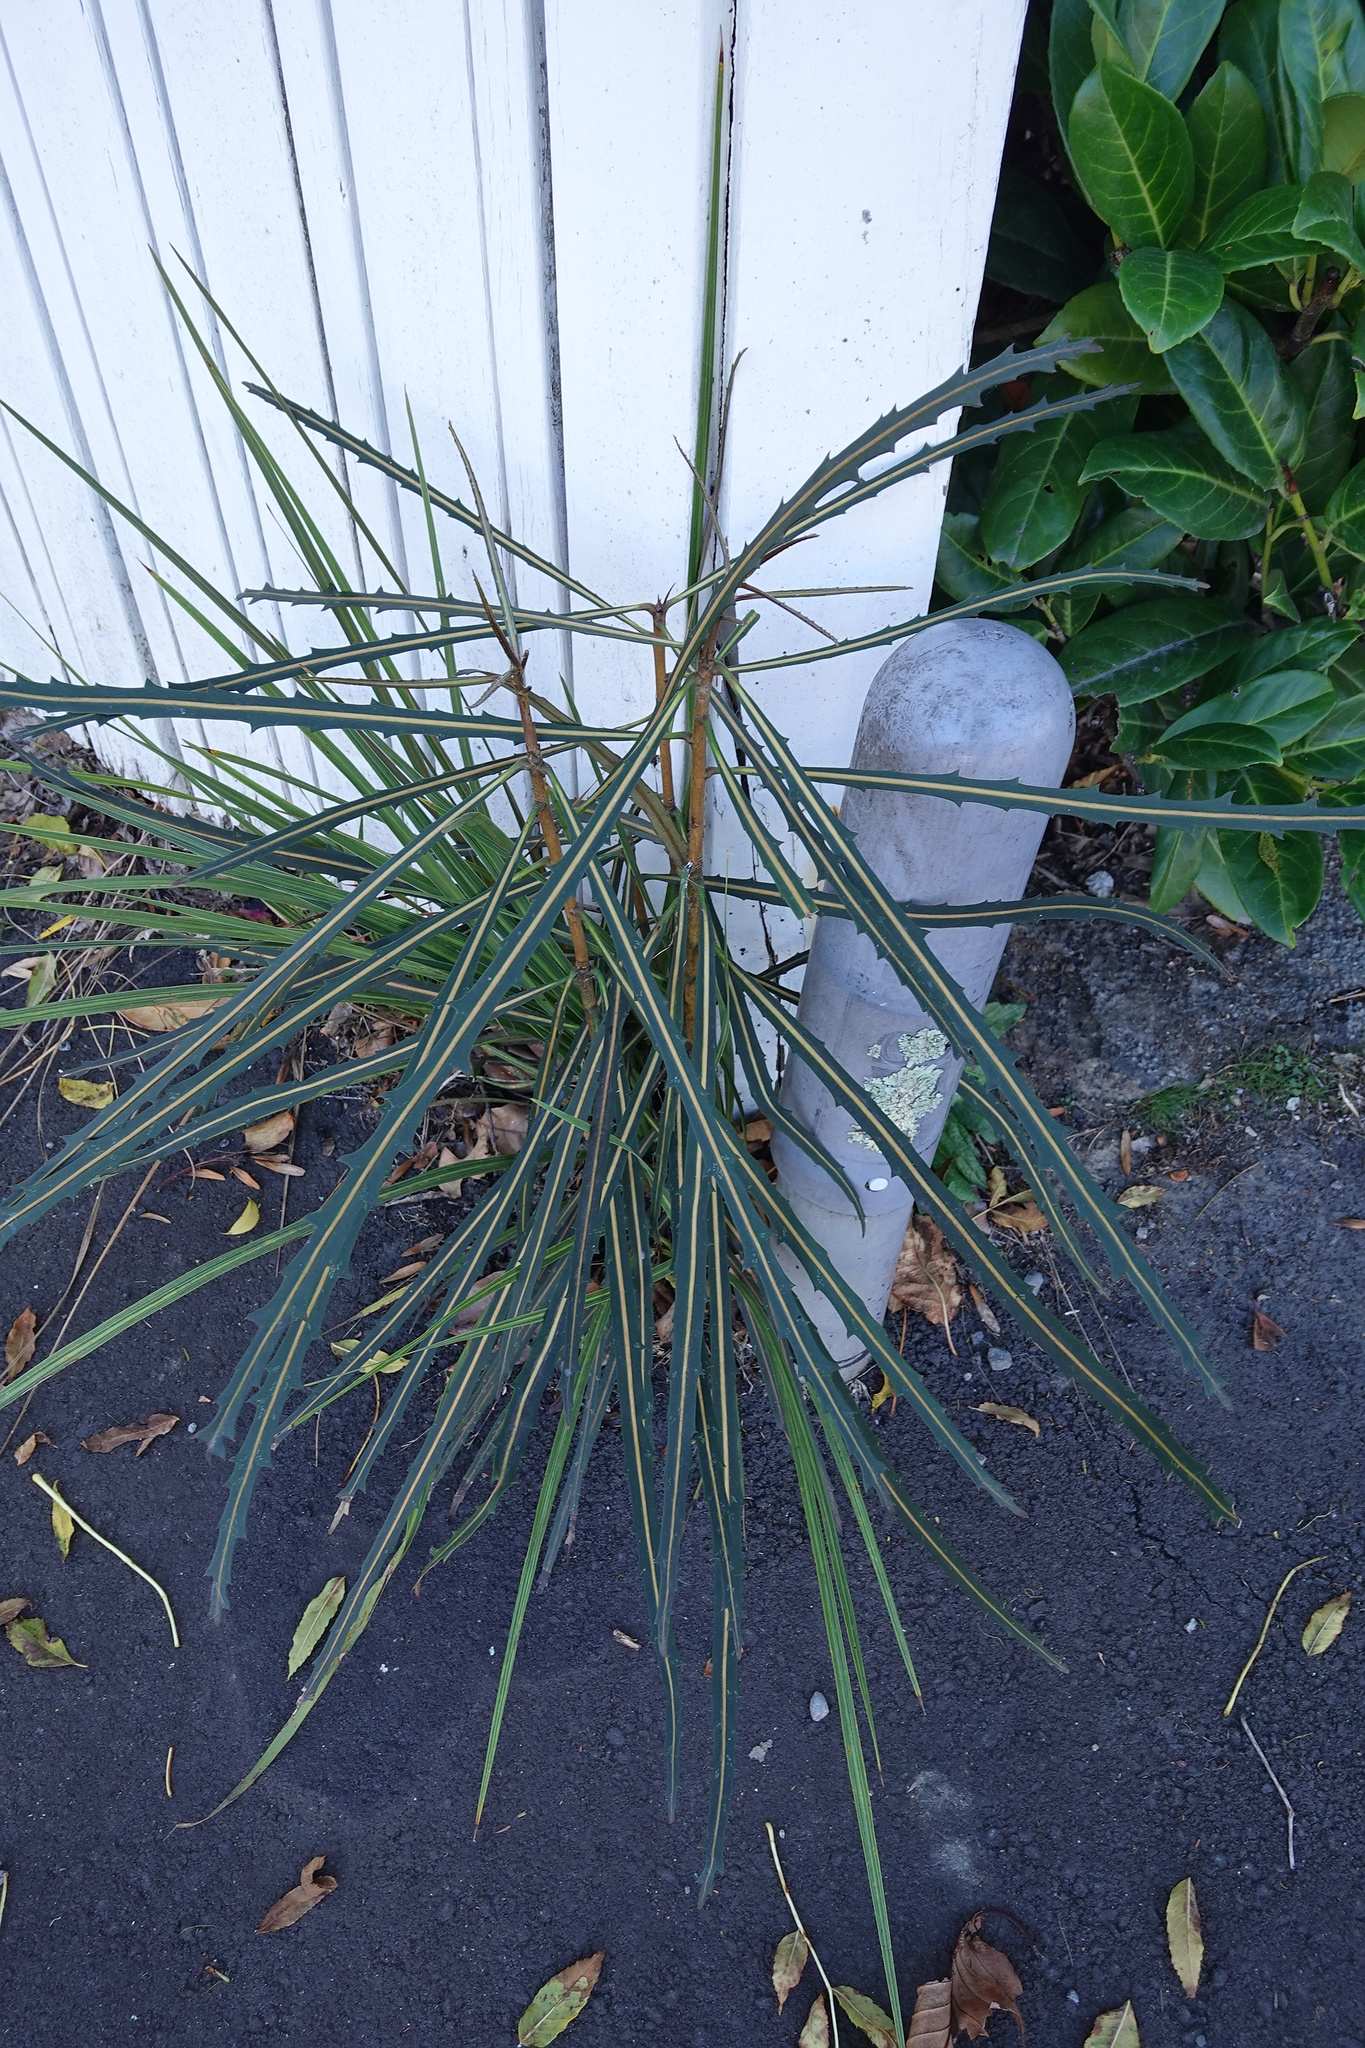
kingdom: Plantae
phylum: Tracheophyta
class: Magnoliopsida
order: Apiales
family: Araliaceae
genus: Pseudopanax
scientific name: Pseudopanax crassifolius
